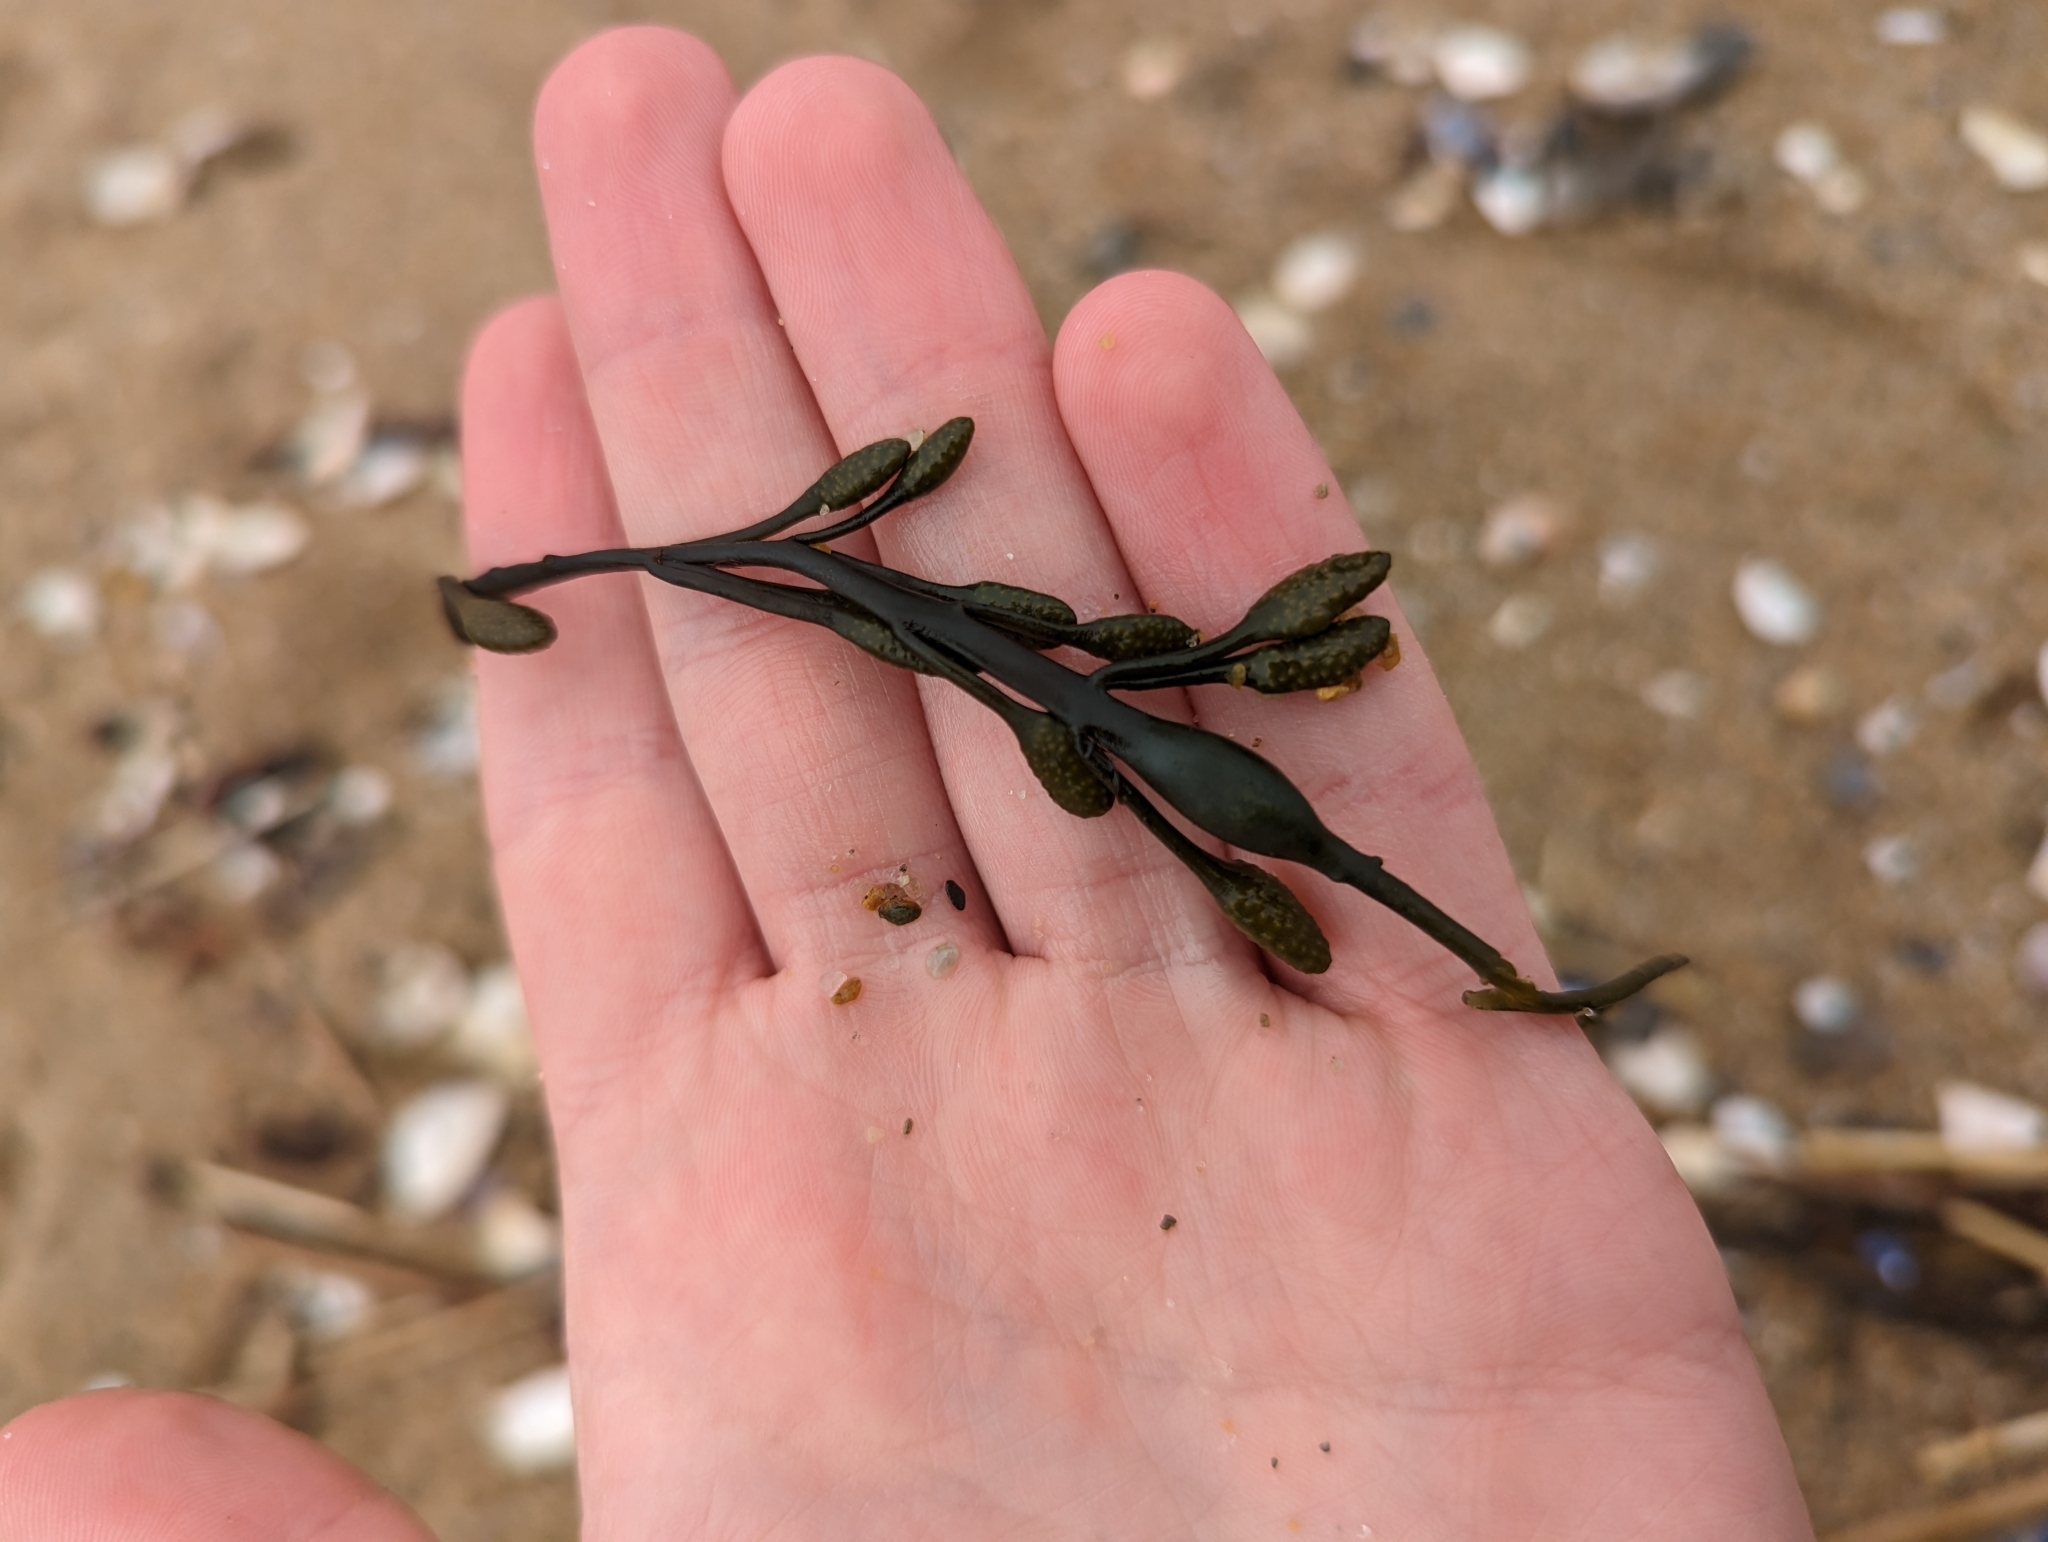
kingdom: Chromista
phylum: Ochrophyta
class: Phaeophyceae
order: Fucales
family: Fucaceae
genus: Ascophyllum
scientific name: Ascophyllum nodosum
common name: Knotted wrack
